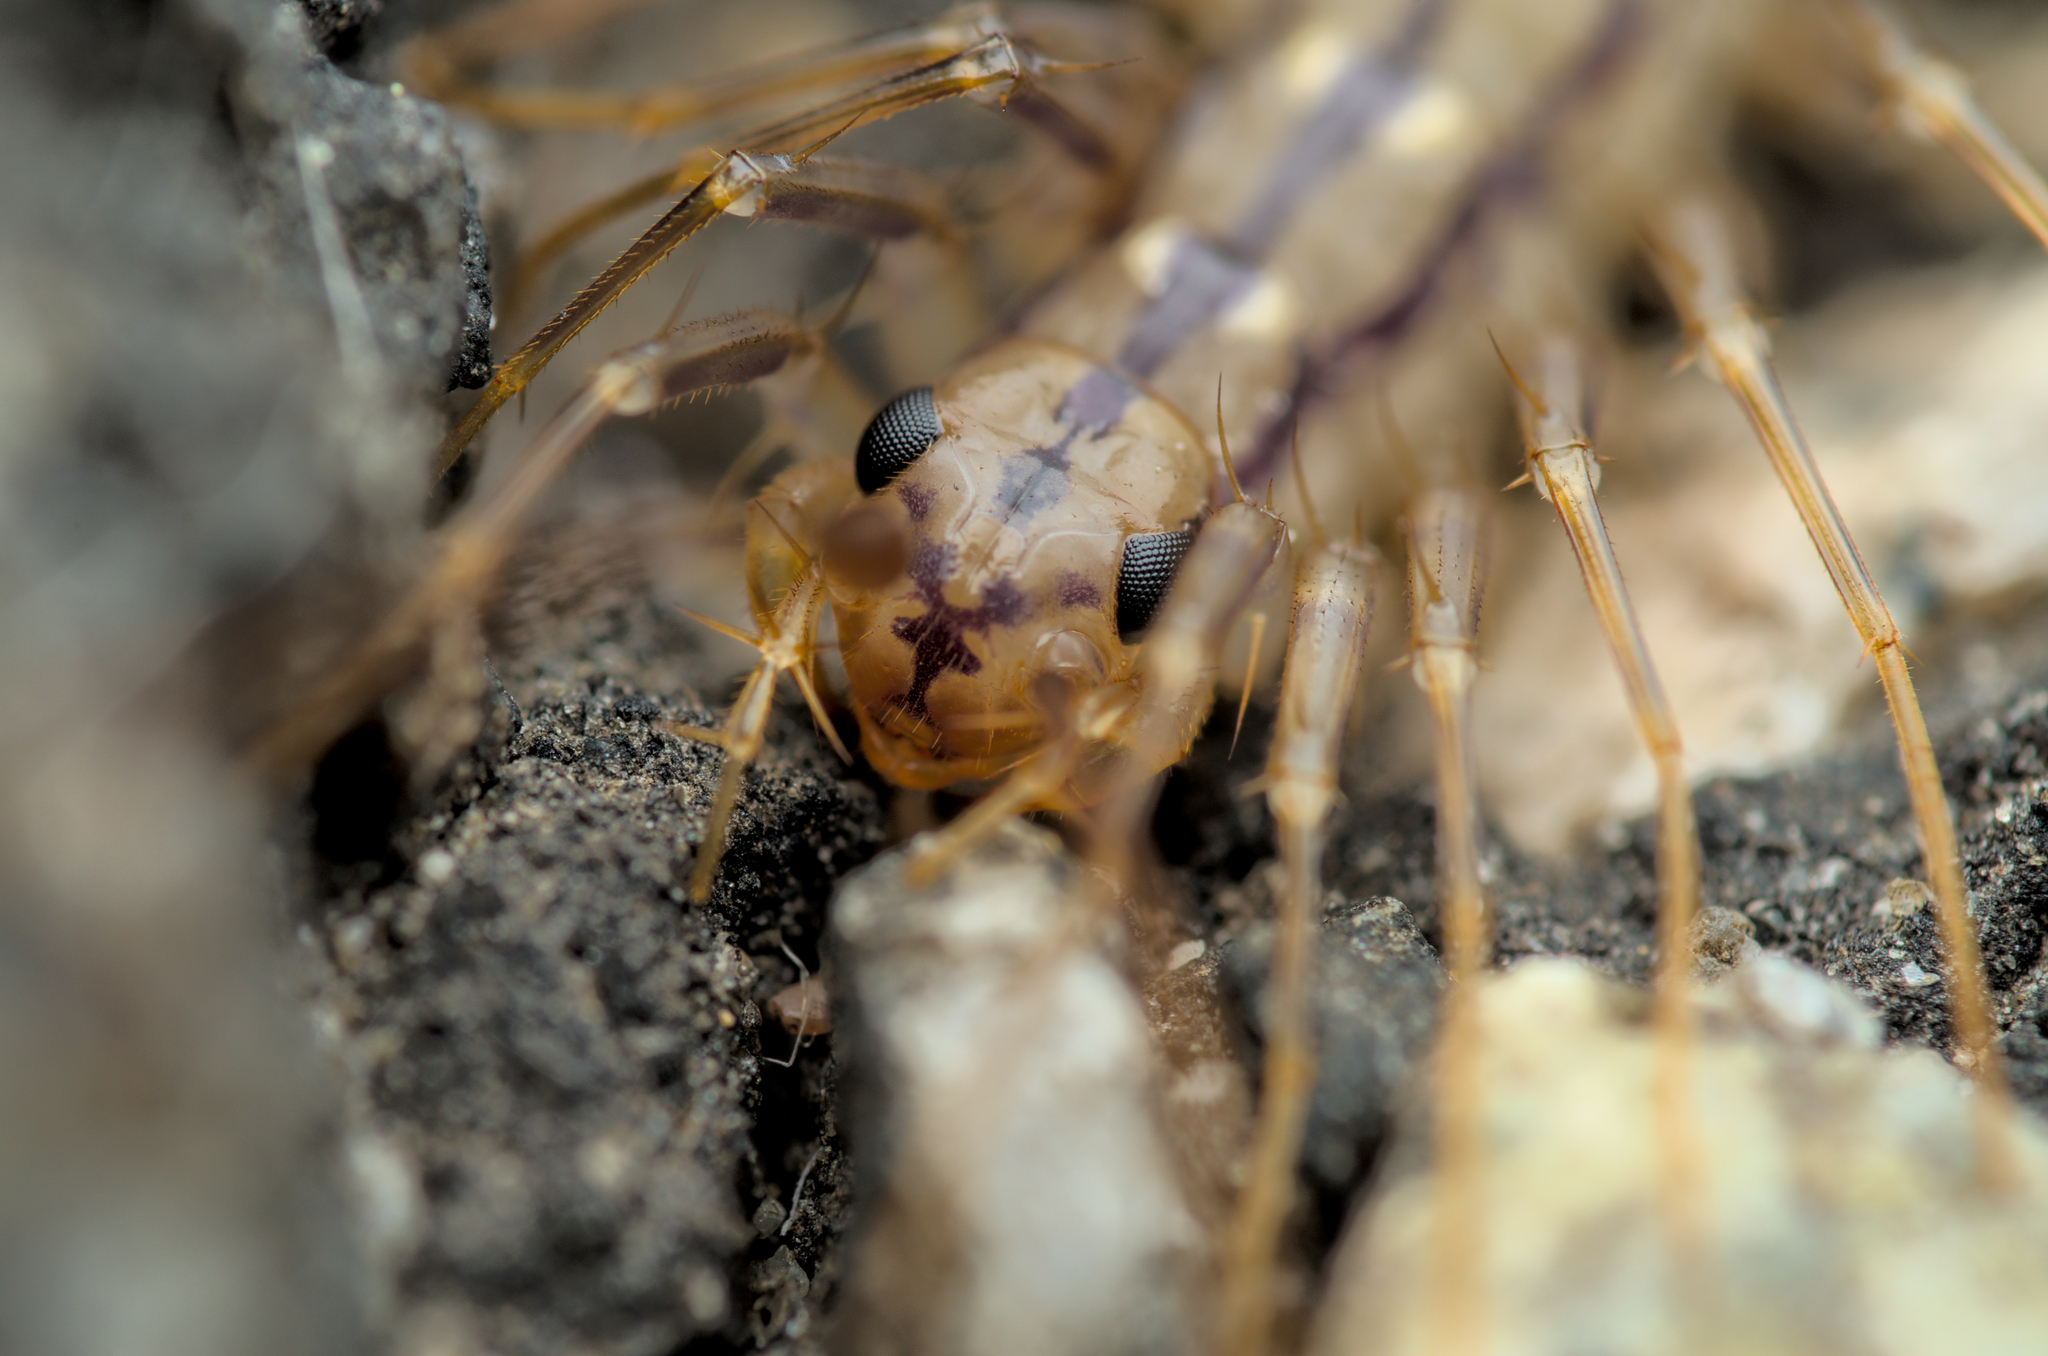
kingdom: Animalia
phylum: Arthropoda
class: Chilopoda
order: Scutigeromorpha
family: Scutigeridae
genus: Scutigera
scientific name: Scutigera coleoptrata
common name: House centipede
